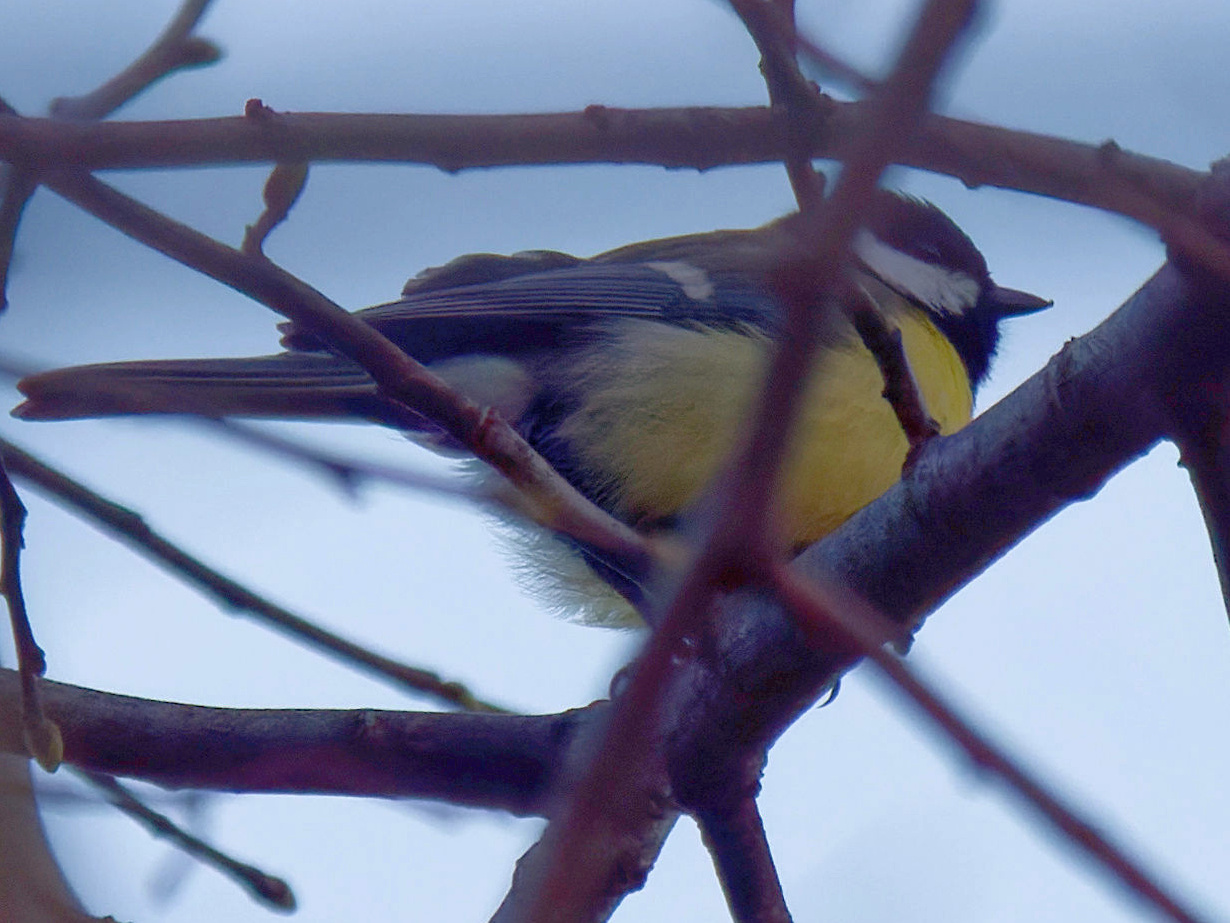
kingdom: Animalia
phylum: Chordata
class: Aves
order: Passeriformes
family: Paridae
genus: Parus
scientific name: Parus major
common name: Great tit
